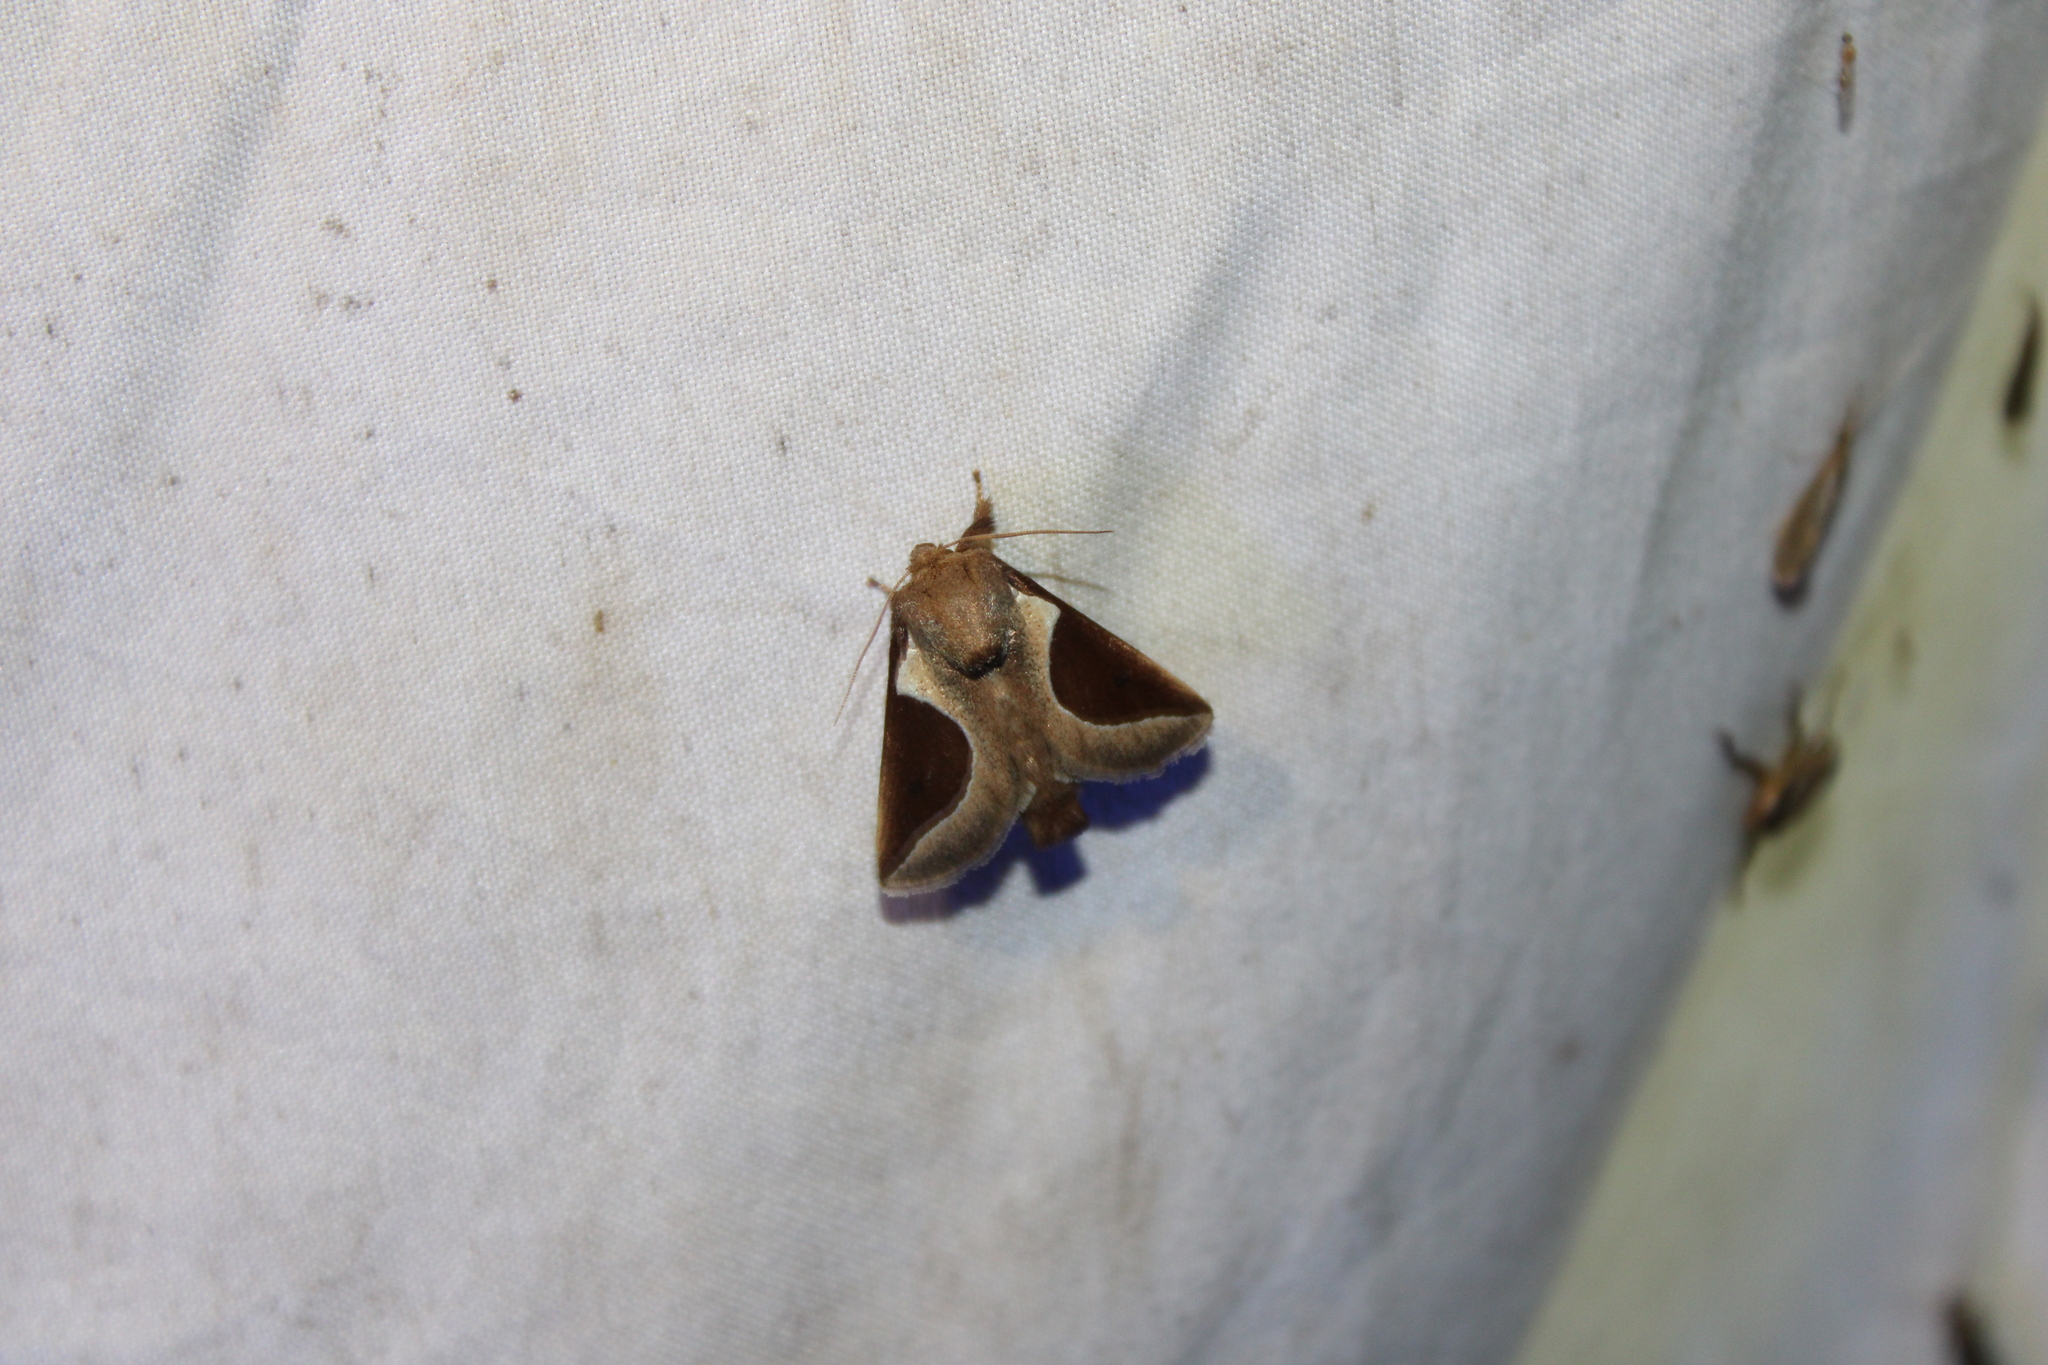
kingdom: Animalia
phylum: Arthropoda
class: Insecta
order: Lepidoptera
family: Limacodidae
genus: Prolimacodes
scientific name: Prolimacodes badia
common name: Skiff moth
